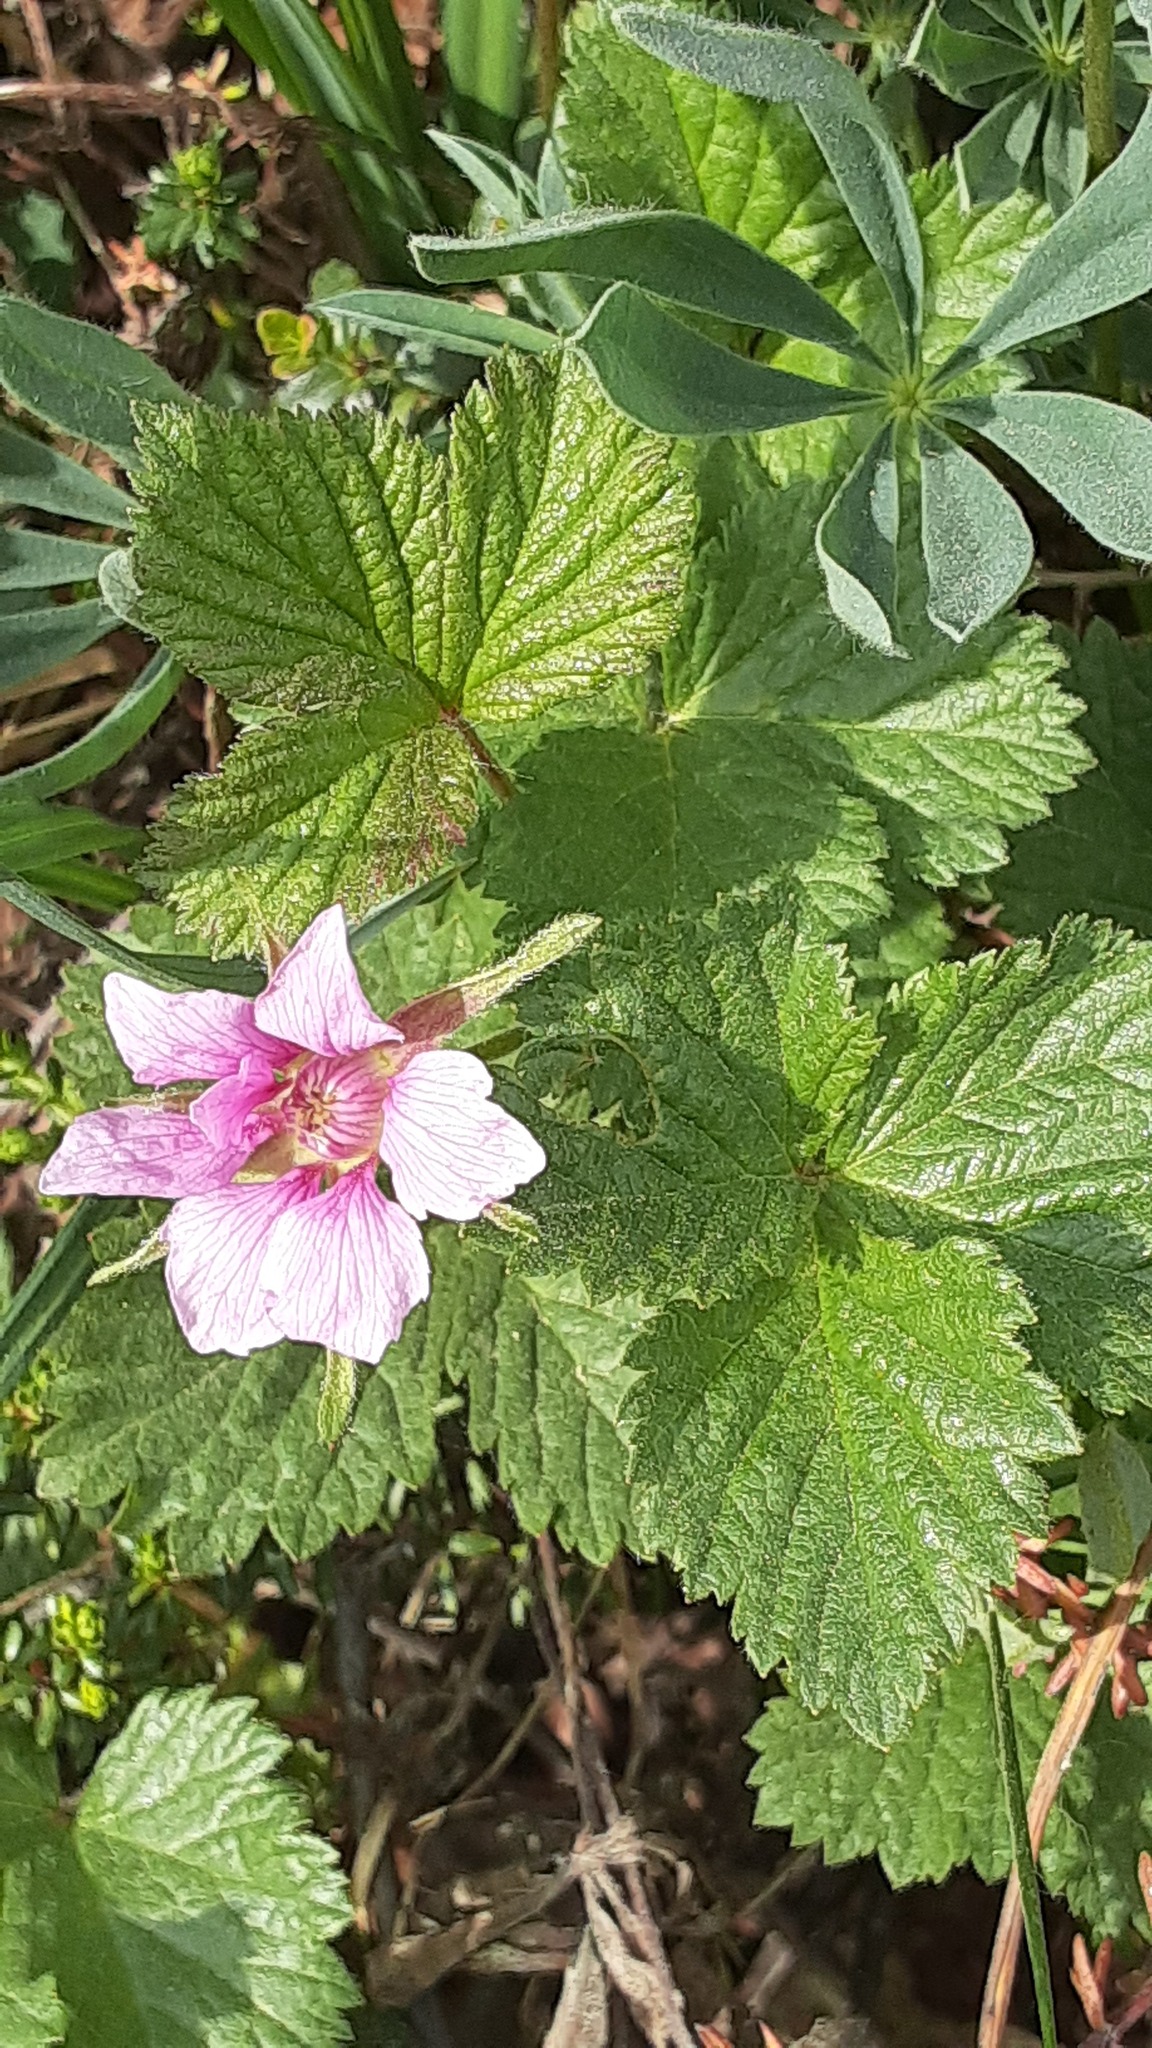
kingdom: Plantae
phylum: Tracheophyta
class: Magnoliopsida
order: Rosales
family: Rosaceae
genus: Rubus
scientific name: Rubus arcticus
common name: Arctic bramble
